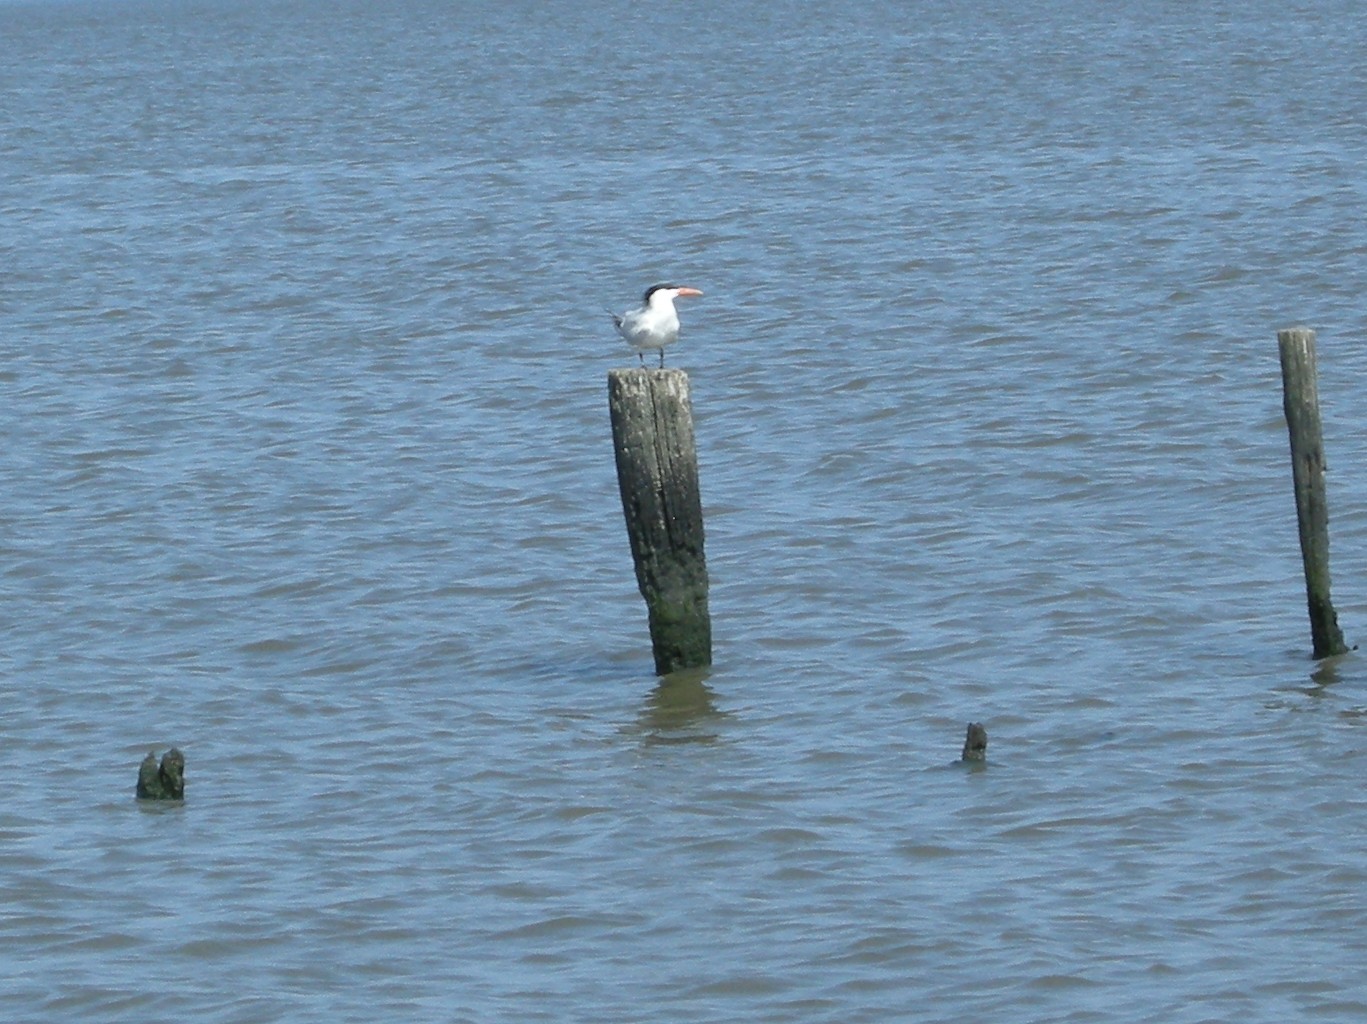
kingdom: Animalia
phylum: Chordata
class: Aves
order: Charadriiformes
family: Laridae
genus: Thalasseus
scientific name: Thalasseus maximus
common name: Royal tern
